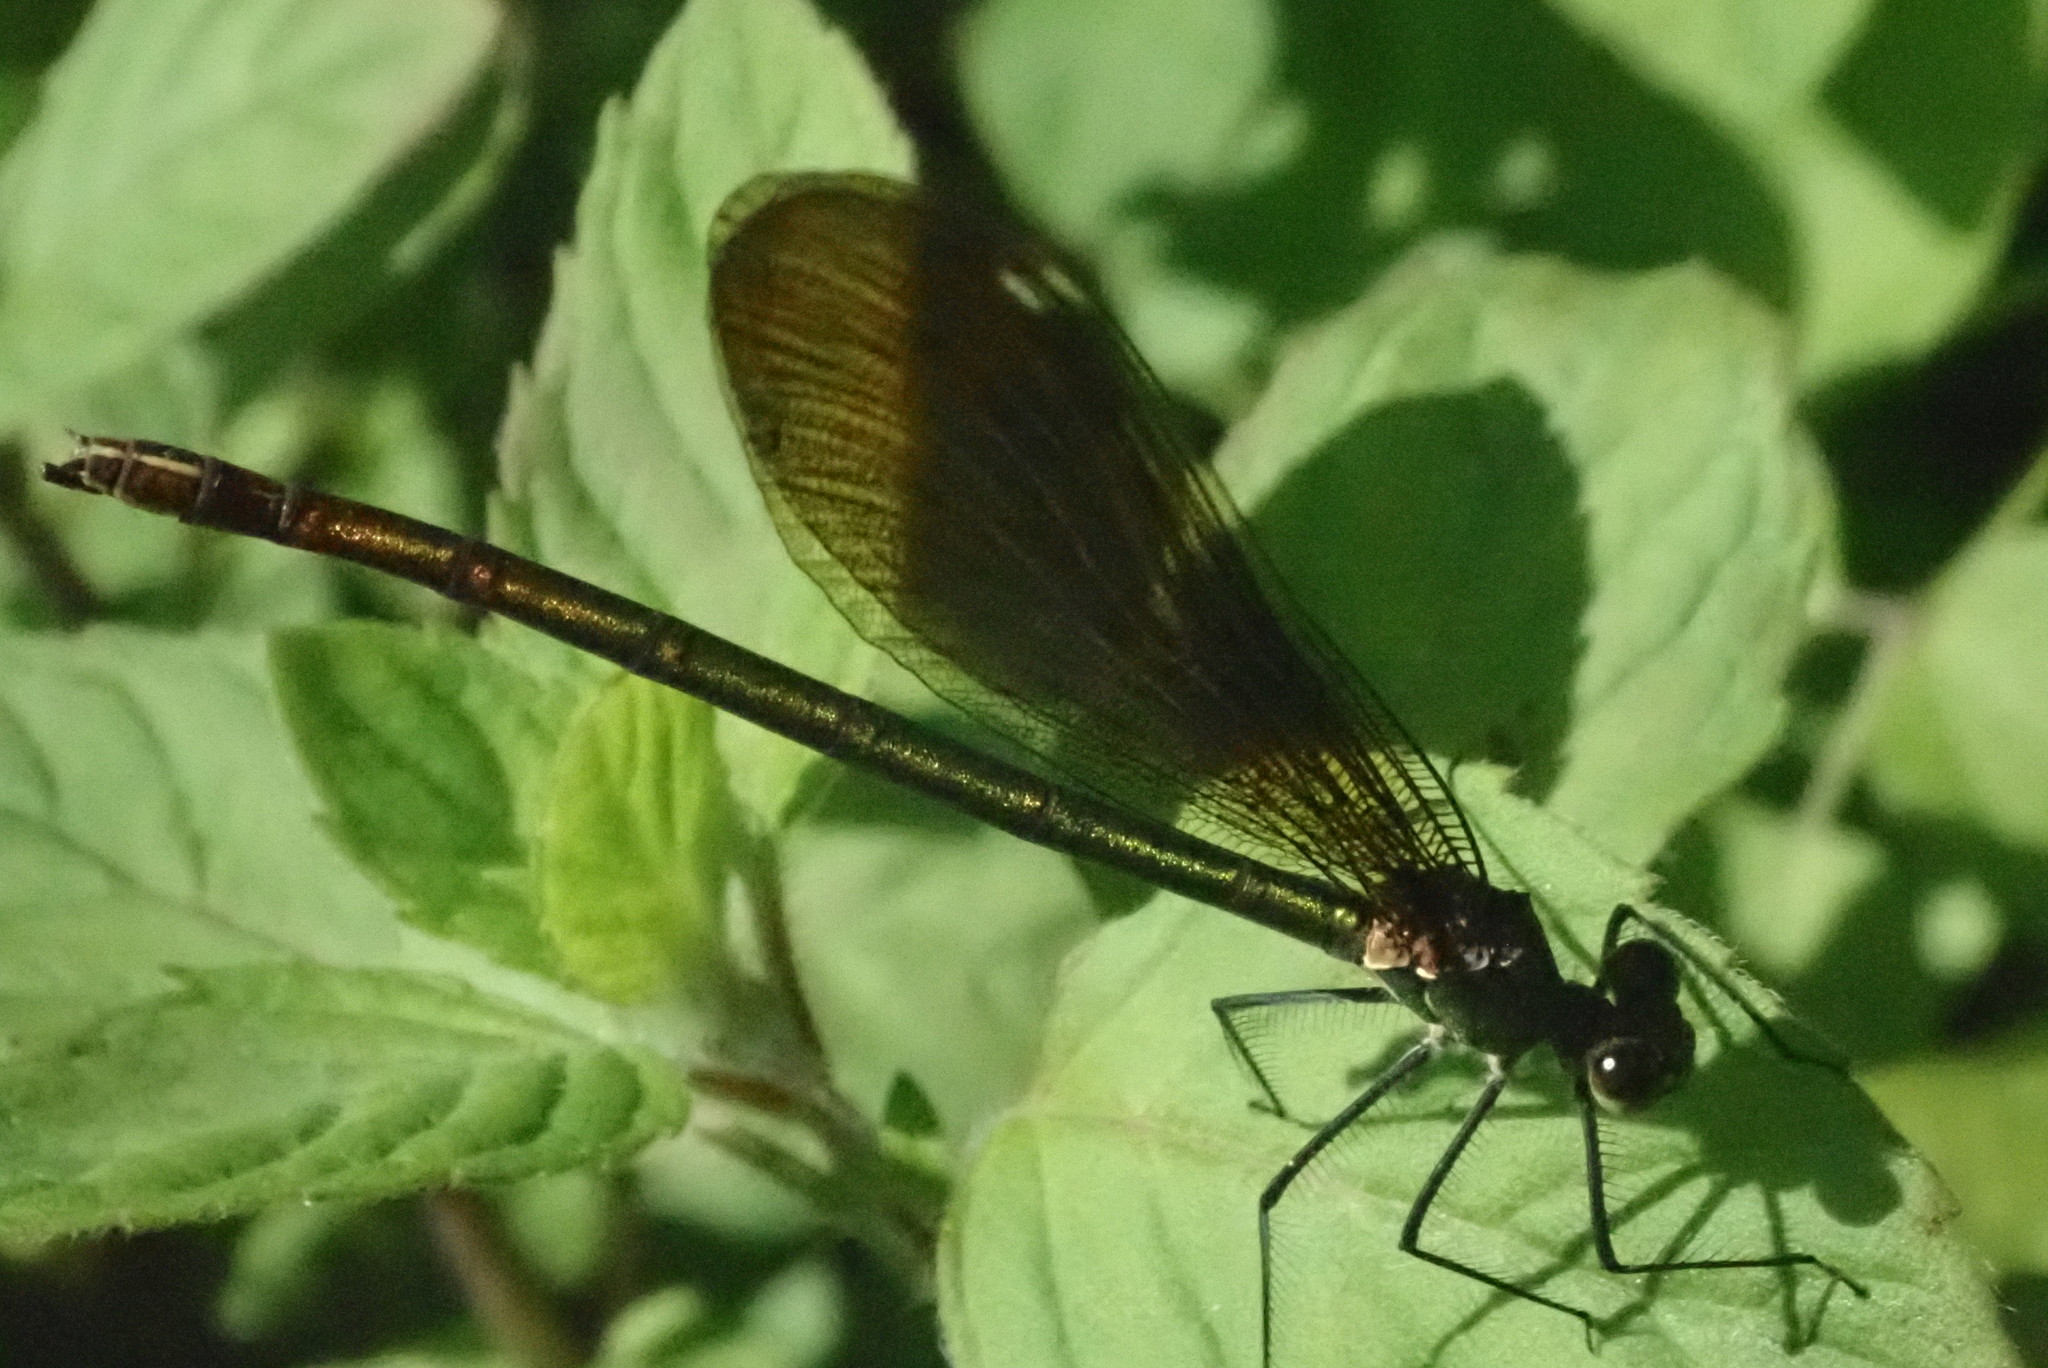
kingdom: Animalia
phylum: Arthropoda
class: Insecta
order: Odonata
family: Calopterygidae
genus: Calopteryx
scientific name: Calopteryx virgo
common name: Beautiful demoiselle
